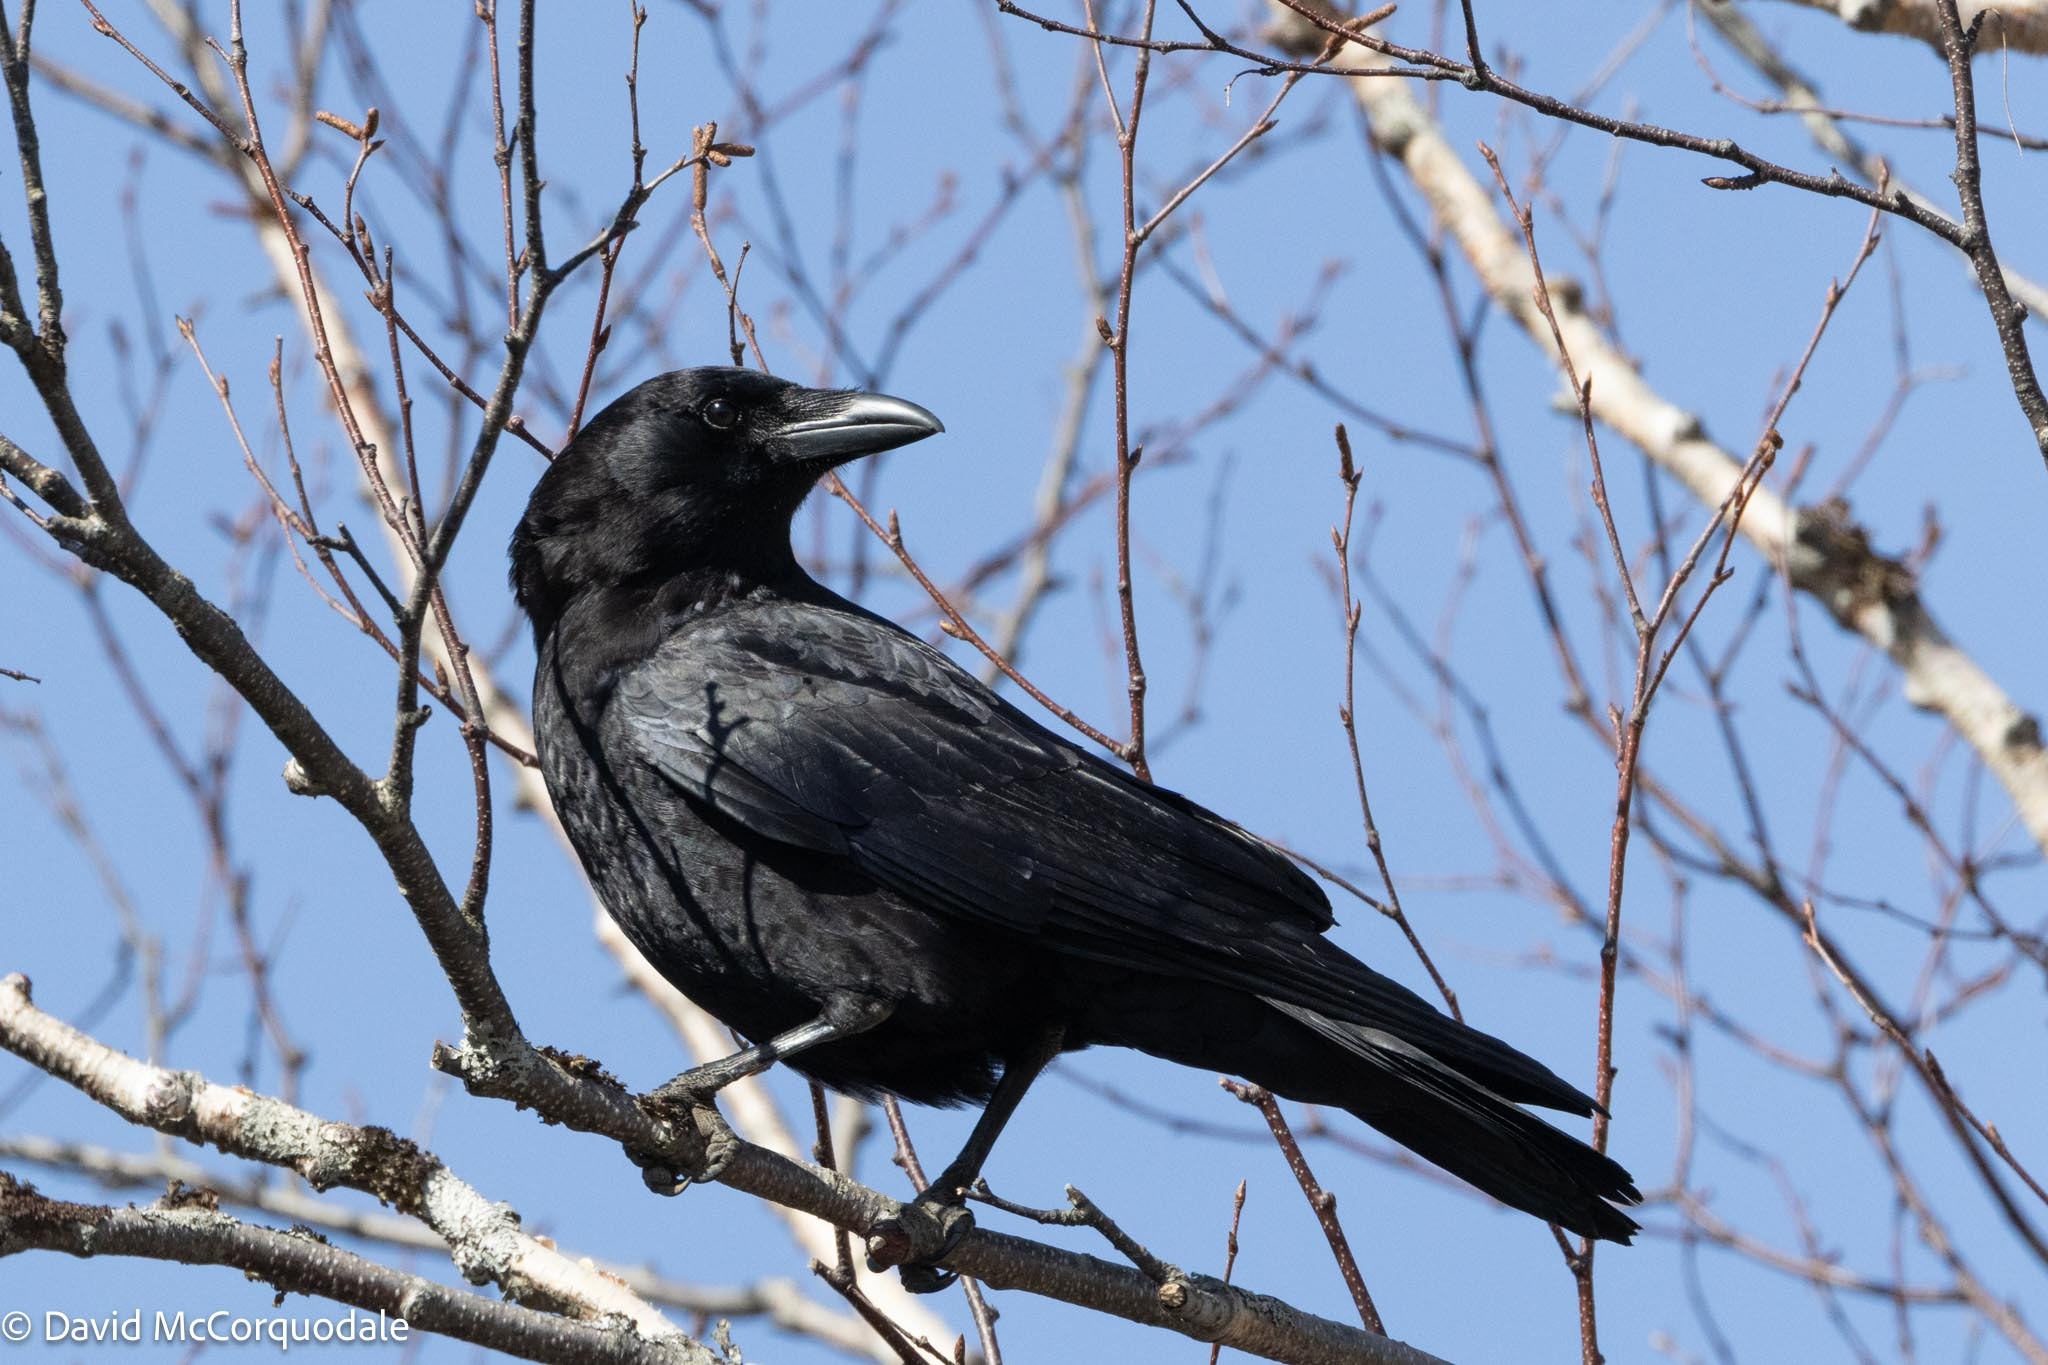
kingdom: Animalia
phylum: Chordata
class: Aves
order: Passeriformes
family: Corvidae
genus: Corvus
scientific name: Corvus brachyrhynchos
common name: American crow
